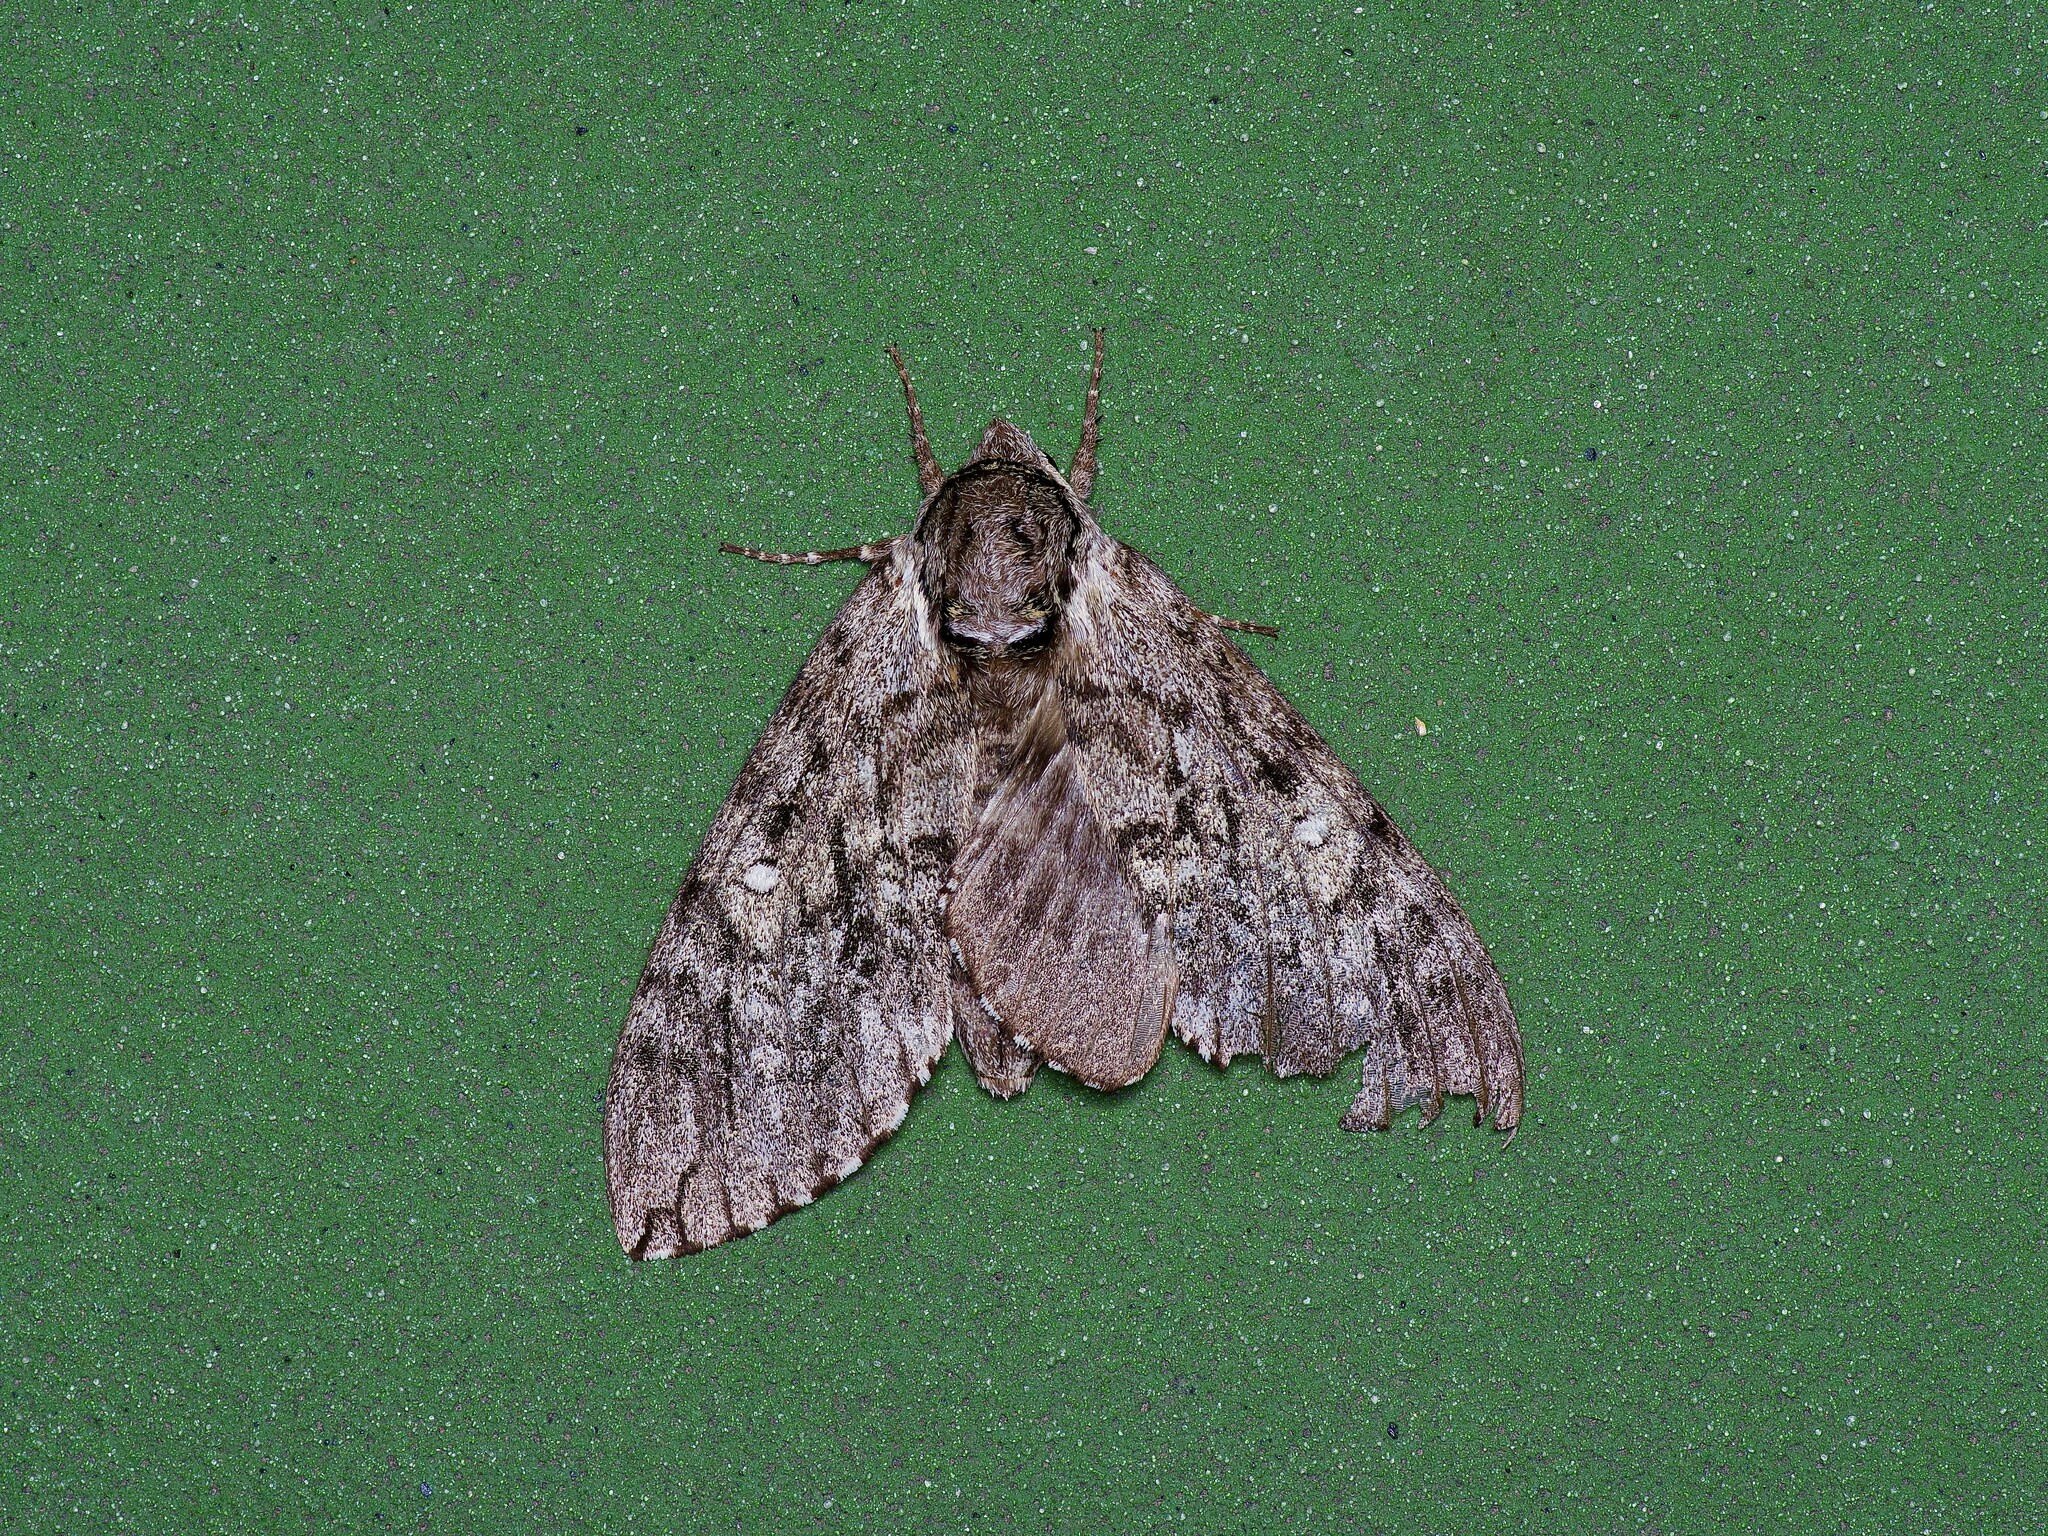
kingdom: Animalia
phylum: Arthropoda
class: Insecta
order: Lepidoptera
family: Sphingidae
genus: Ceratomia
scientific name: Ceratomia undulosa
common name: Waved sphinx
